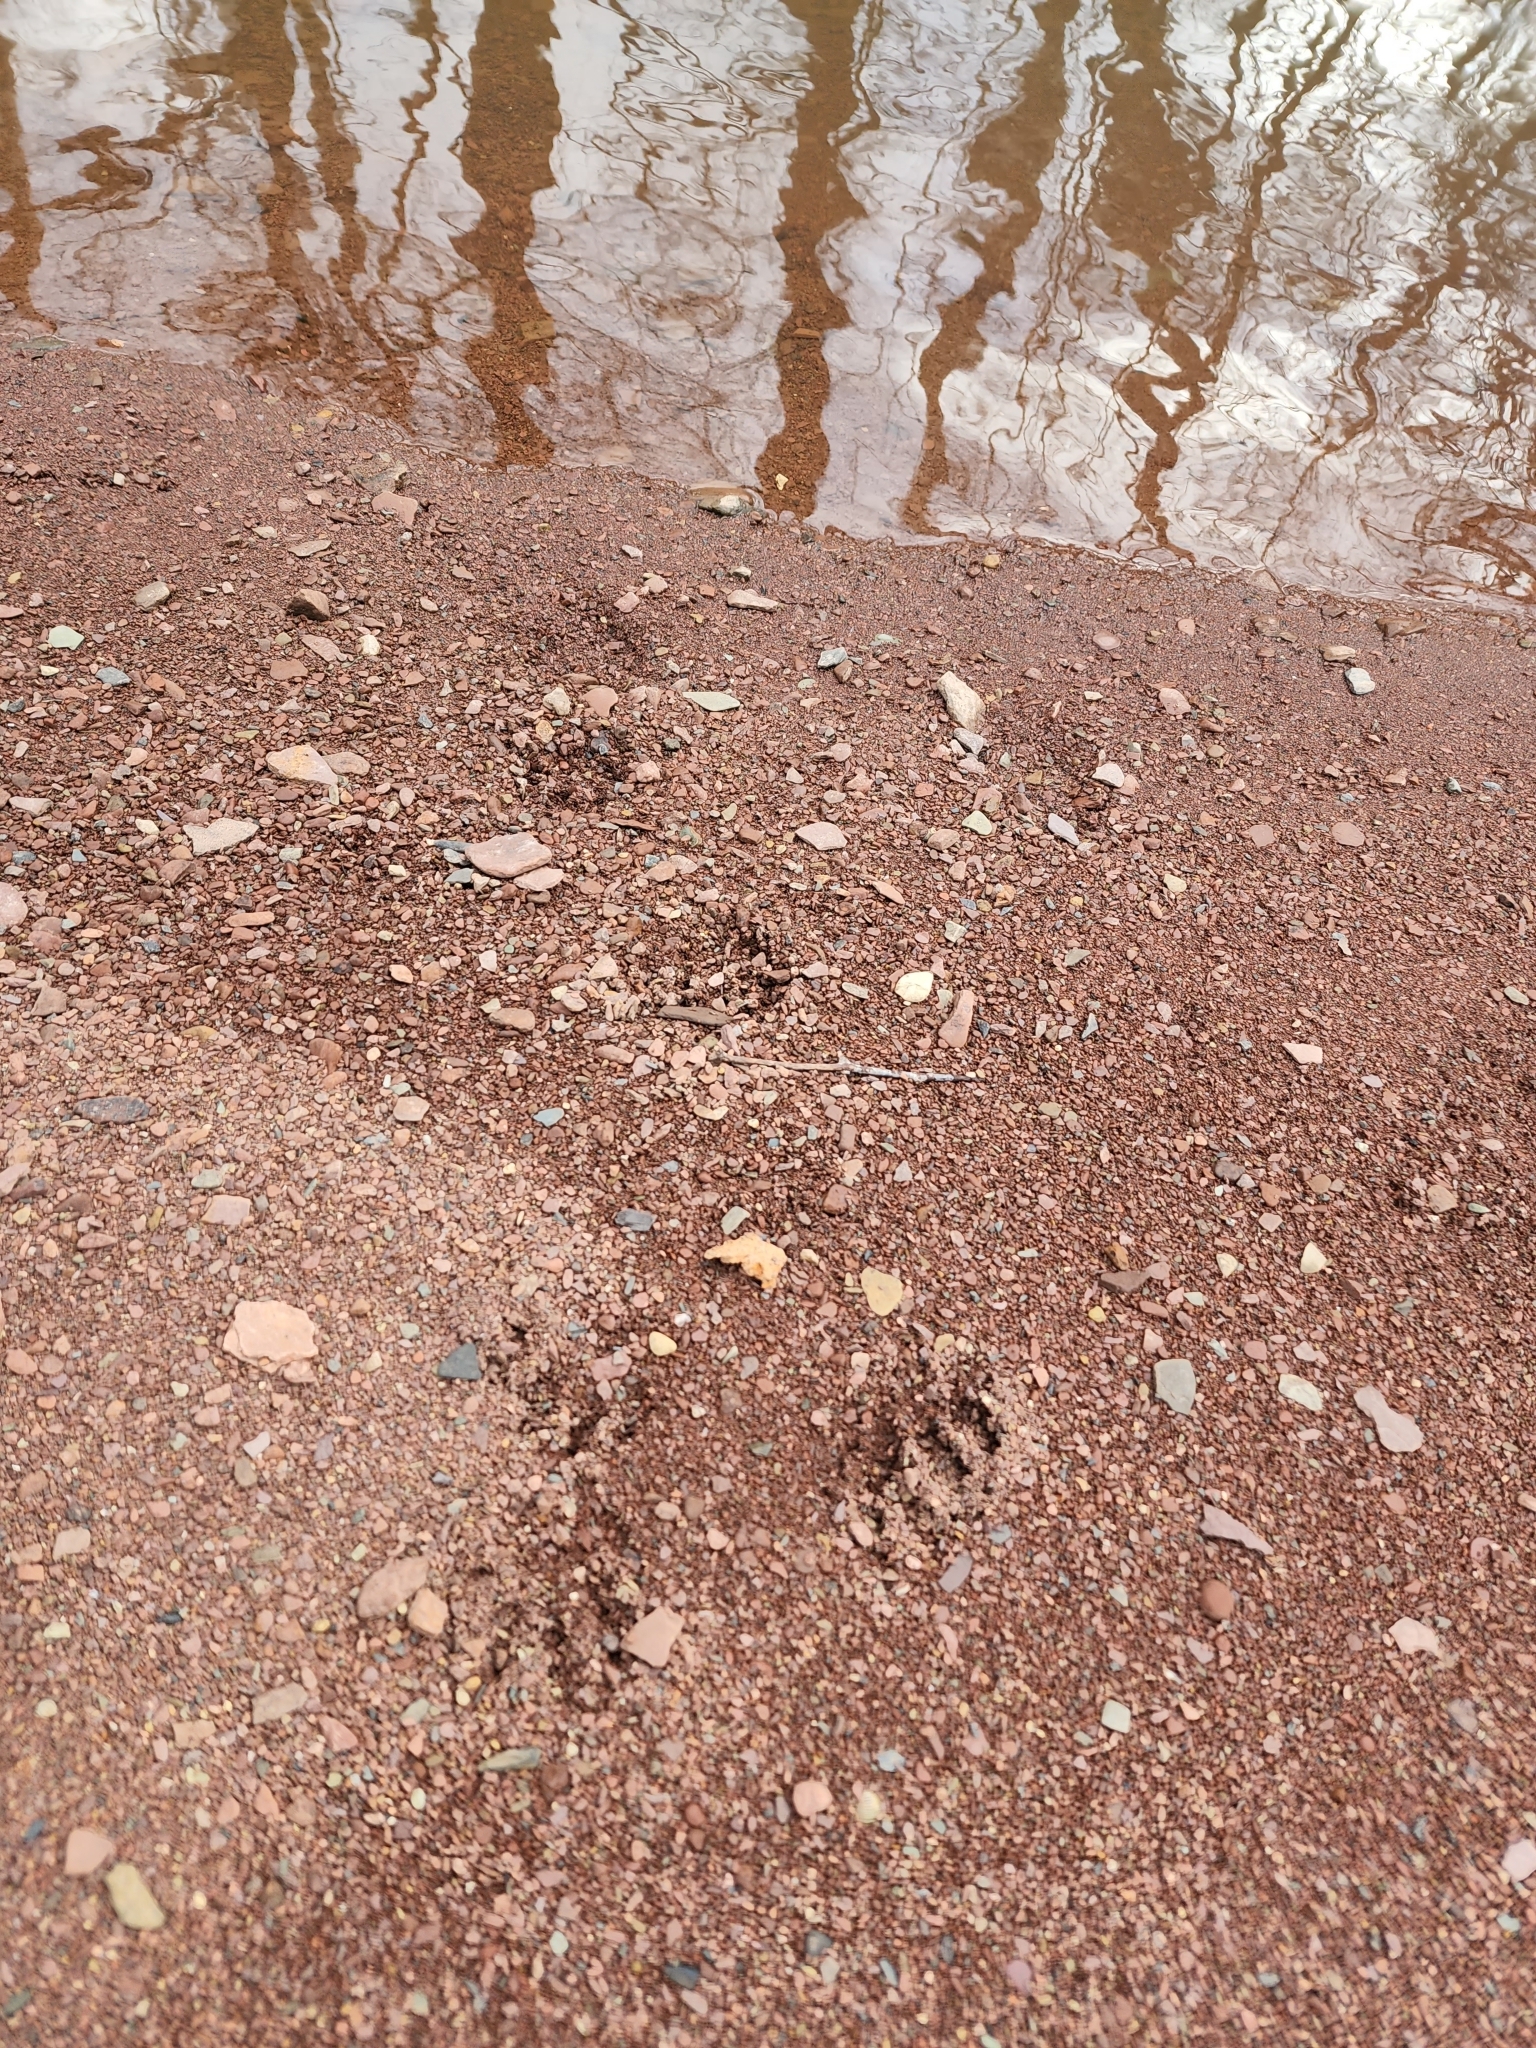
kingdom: Animalia
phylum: Chordata
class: Mammalia
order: Carnivora
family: Procyonidae
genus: Procyon
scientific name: Procyon lotor
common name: Raccoon
